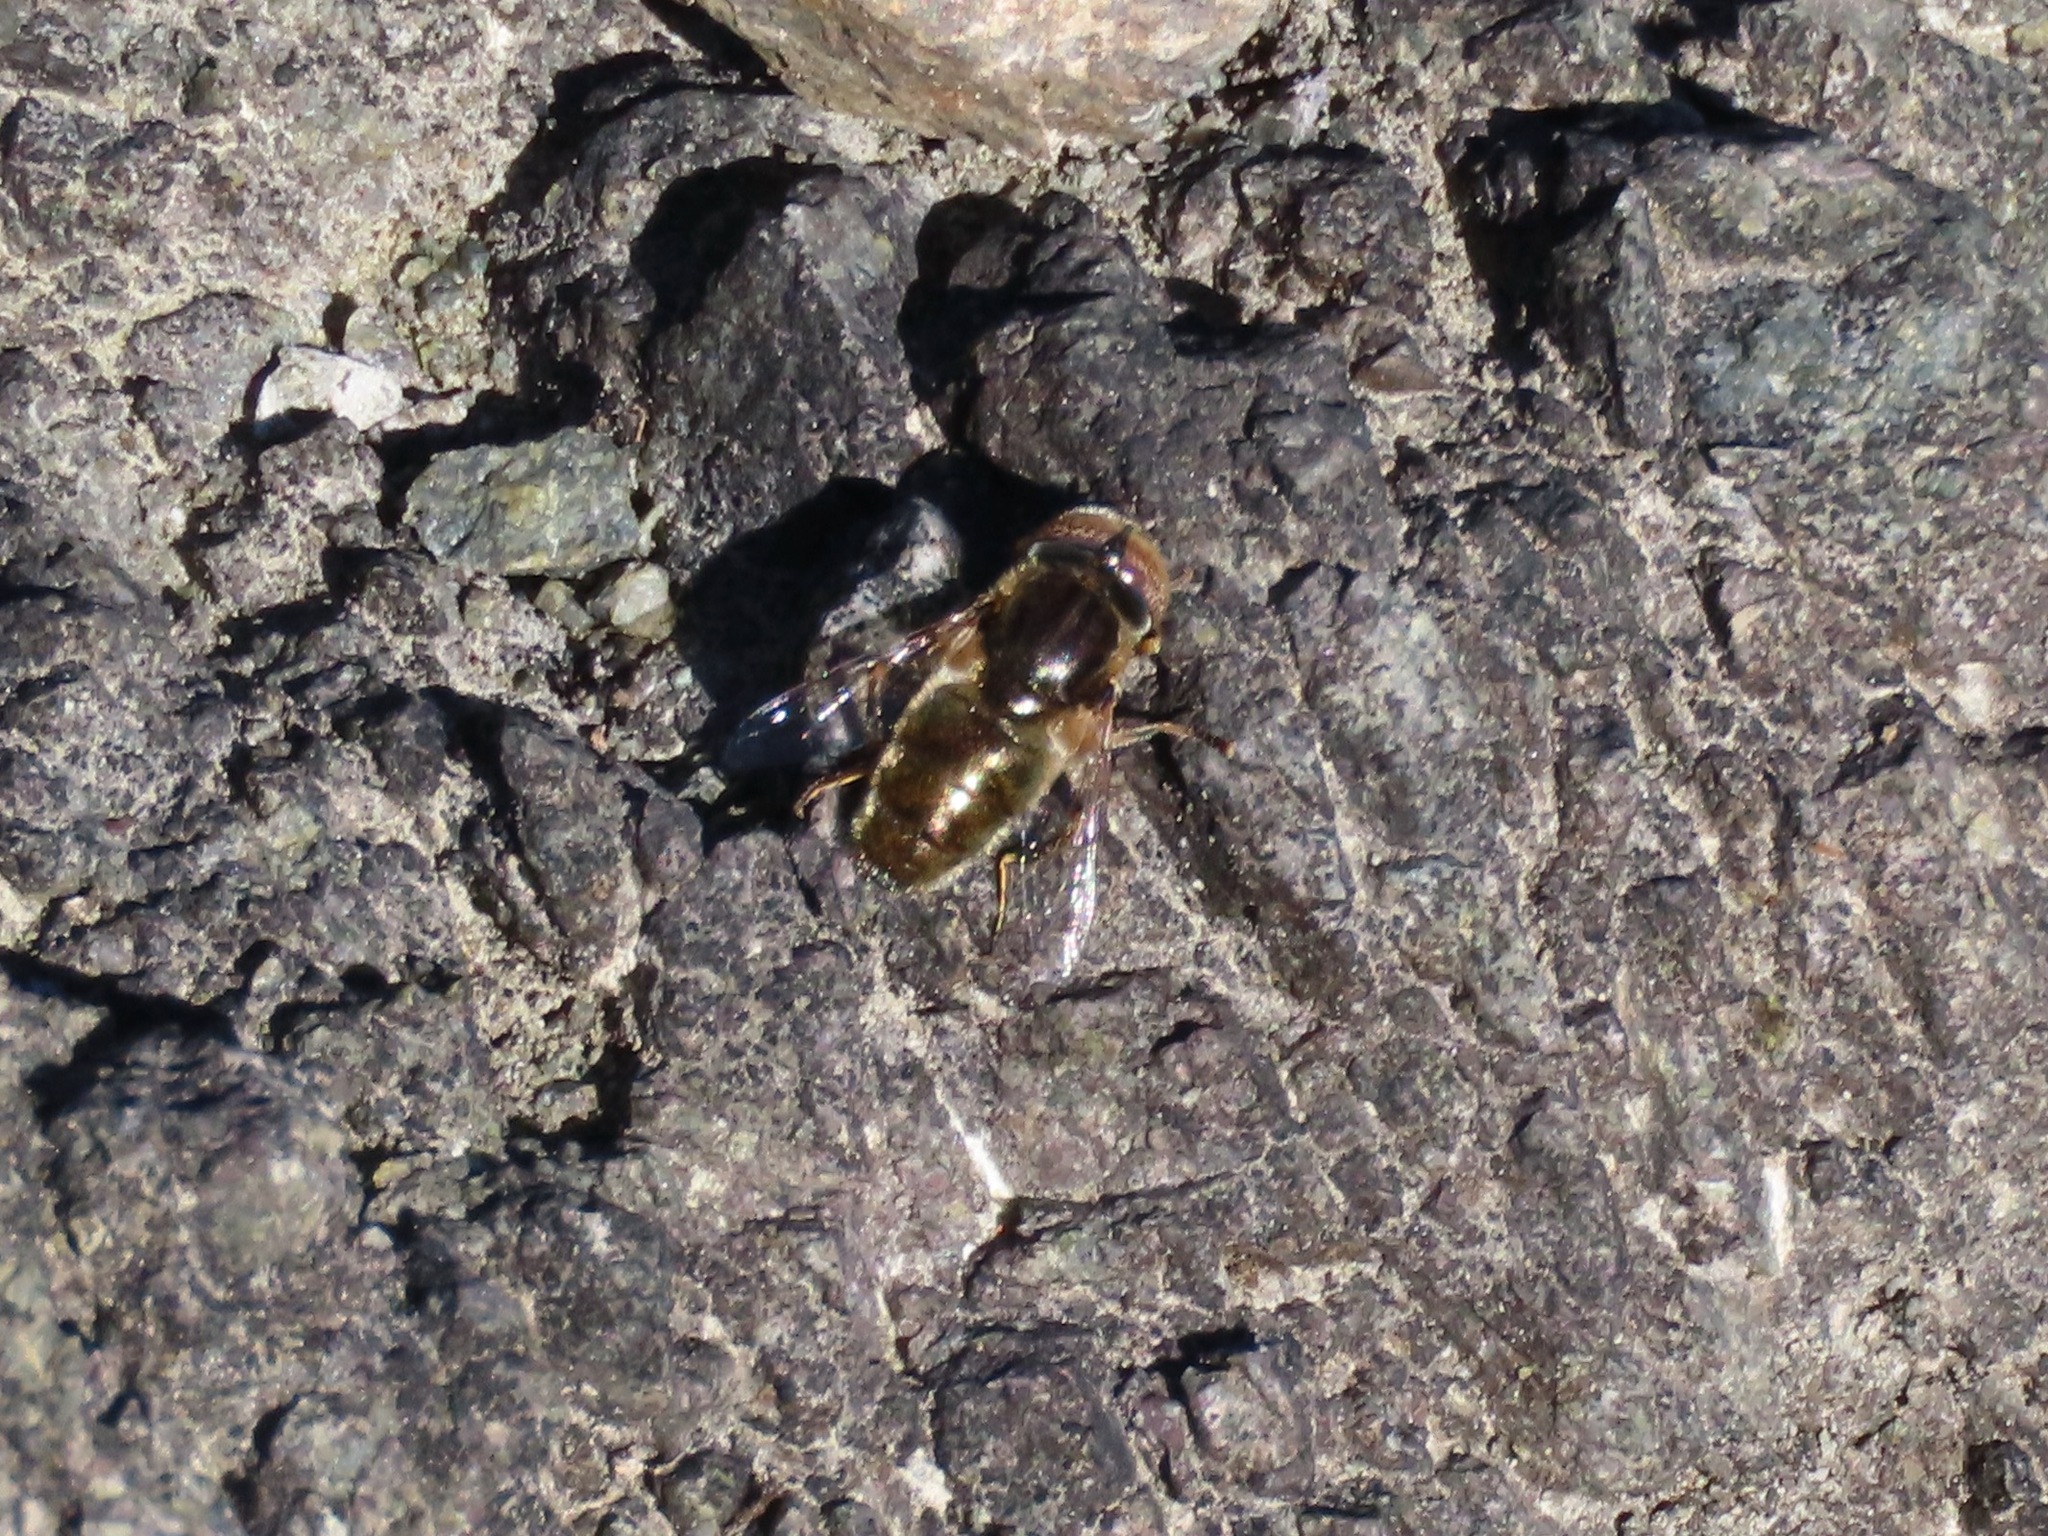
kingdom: Animalia
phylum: Arthropoda
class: Insecta
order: Diptera
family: Syrphidae
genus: Eristalinus
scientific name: Eristalinus aeneus
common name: Syrphid fly
